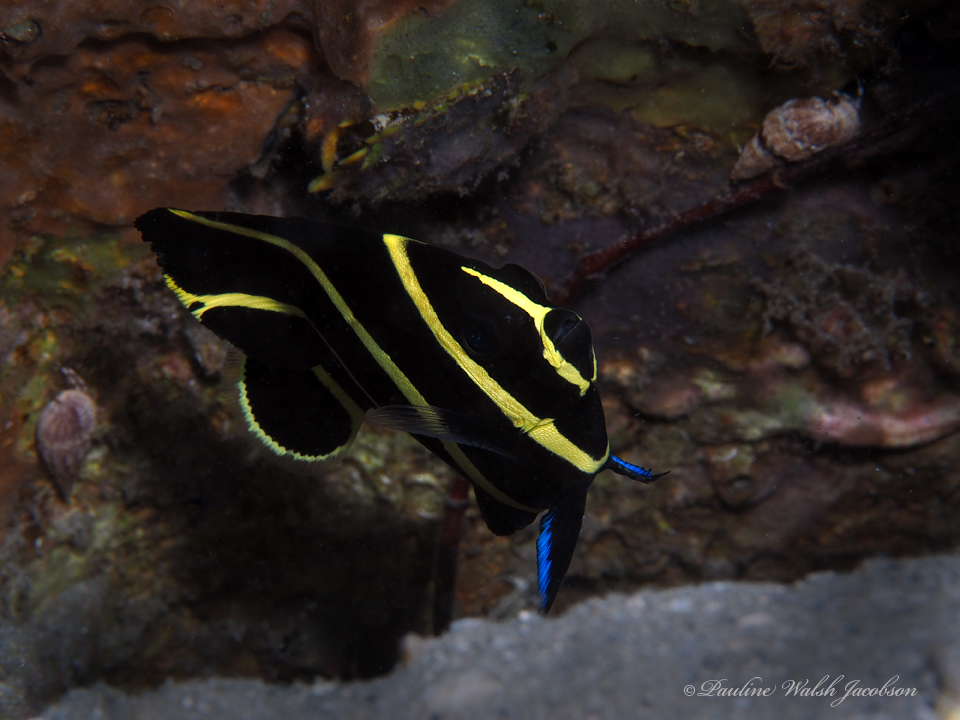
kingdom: Animalia
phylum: Chordata
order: Perciformes
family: Pomacanthidae
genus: Pomacanthus
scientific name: Pomacanthus paru
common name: French angelfish
